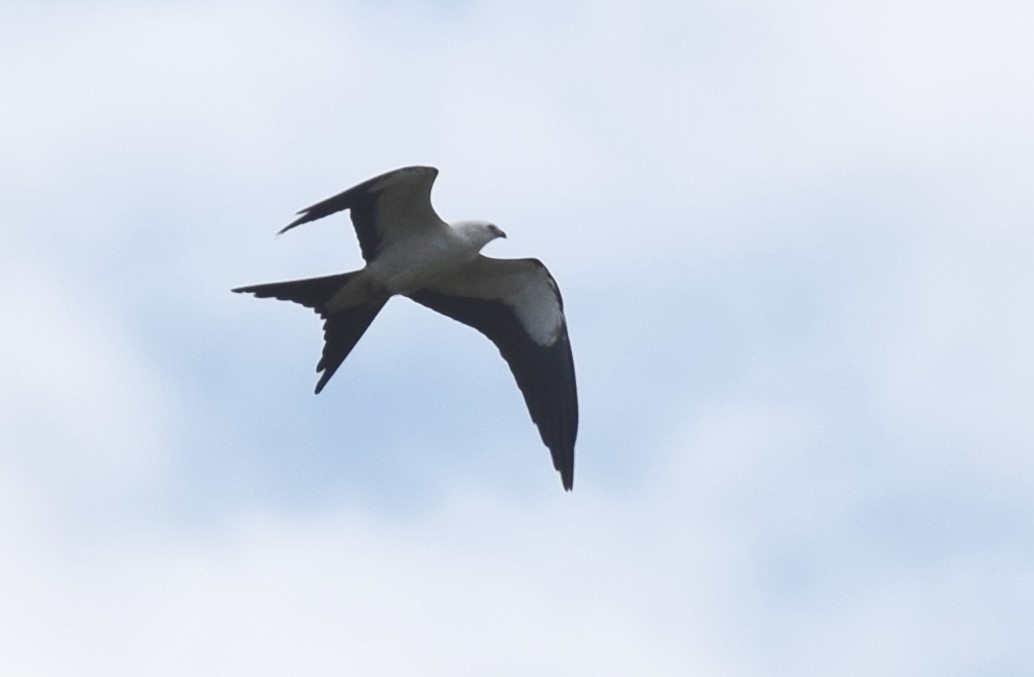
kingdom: Animalia
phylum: Chordata
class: Aves
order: Accipitriformes
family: Accipitridae
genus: Elanoides
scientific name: Elanoides forficatus
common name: Swallow-tailed kite
